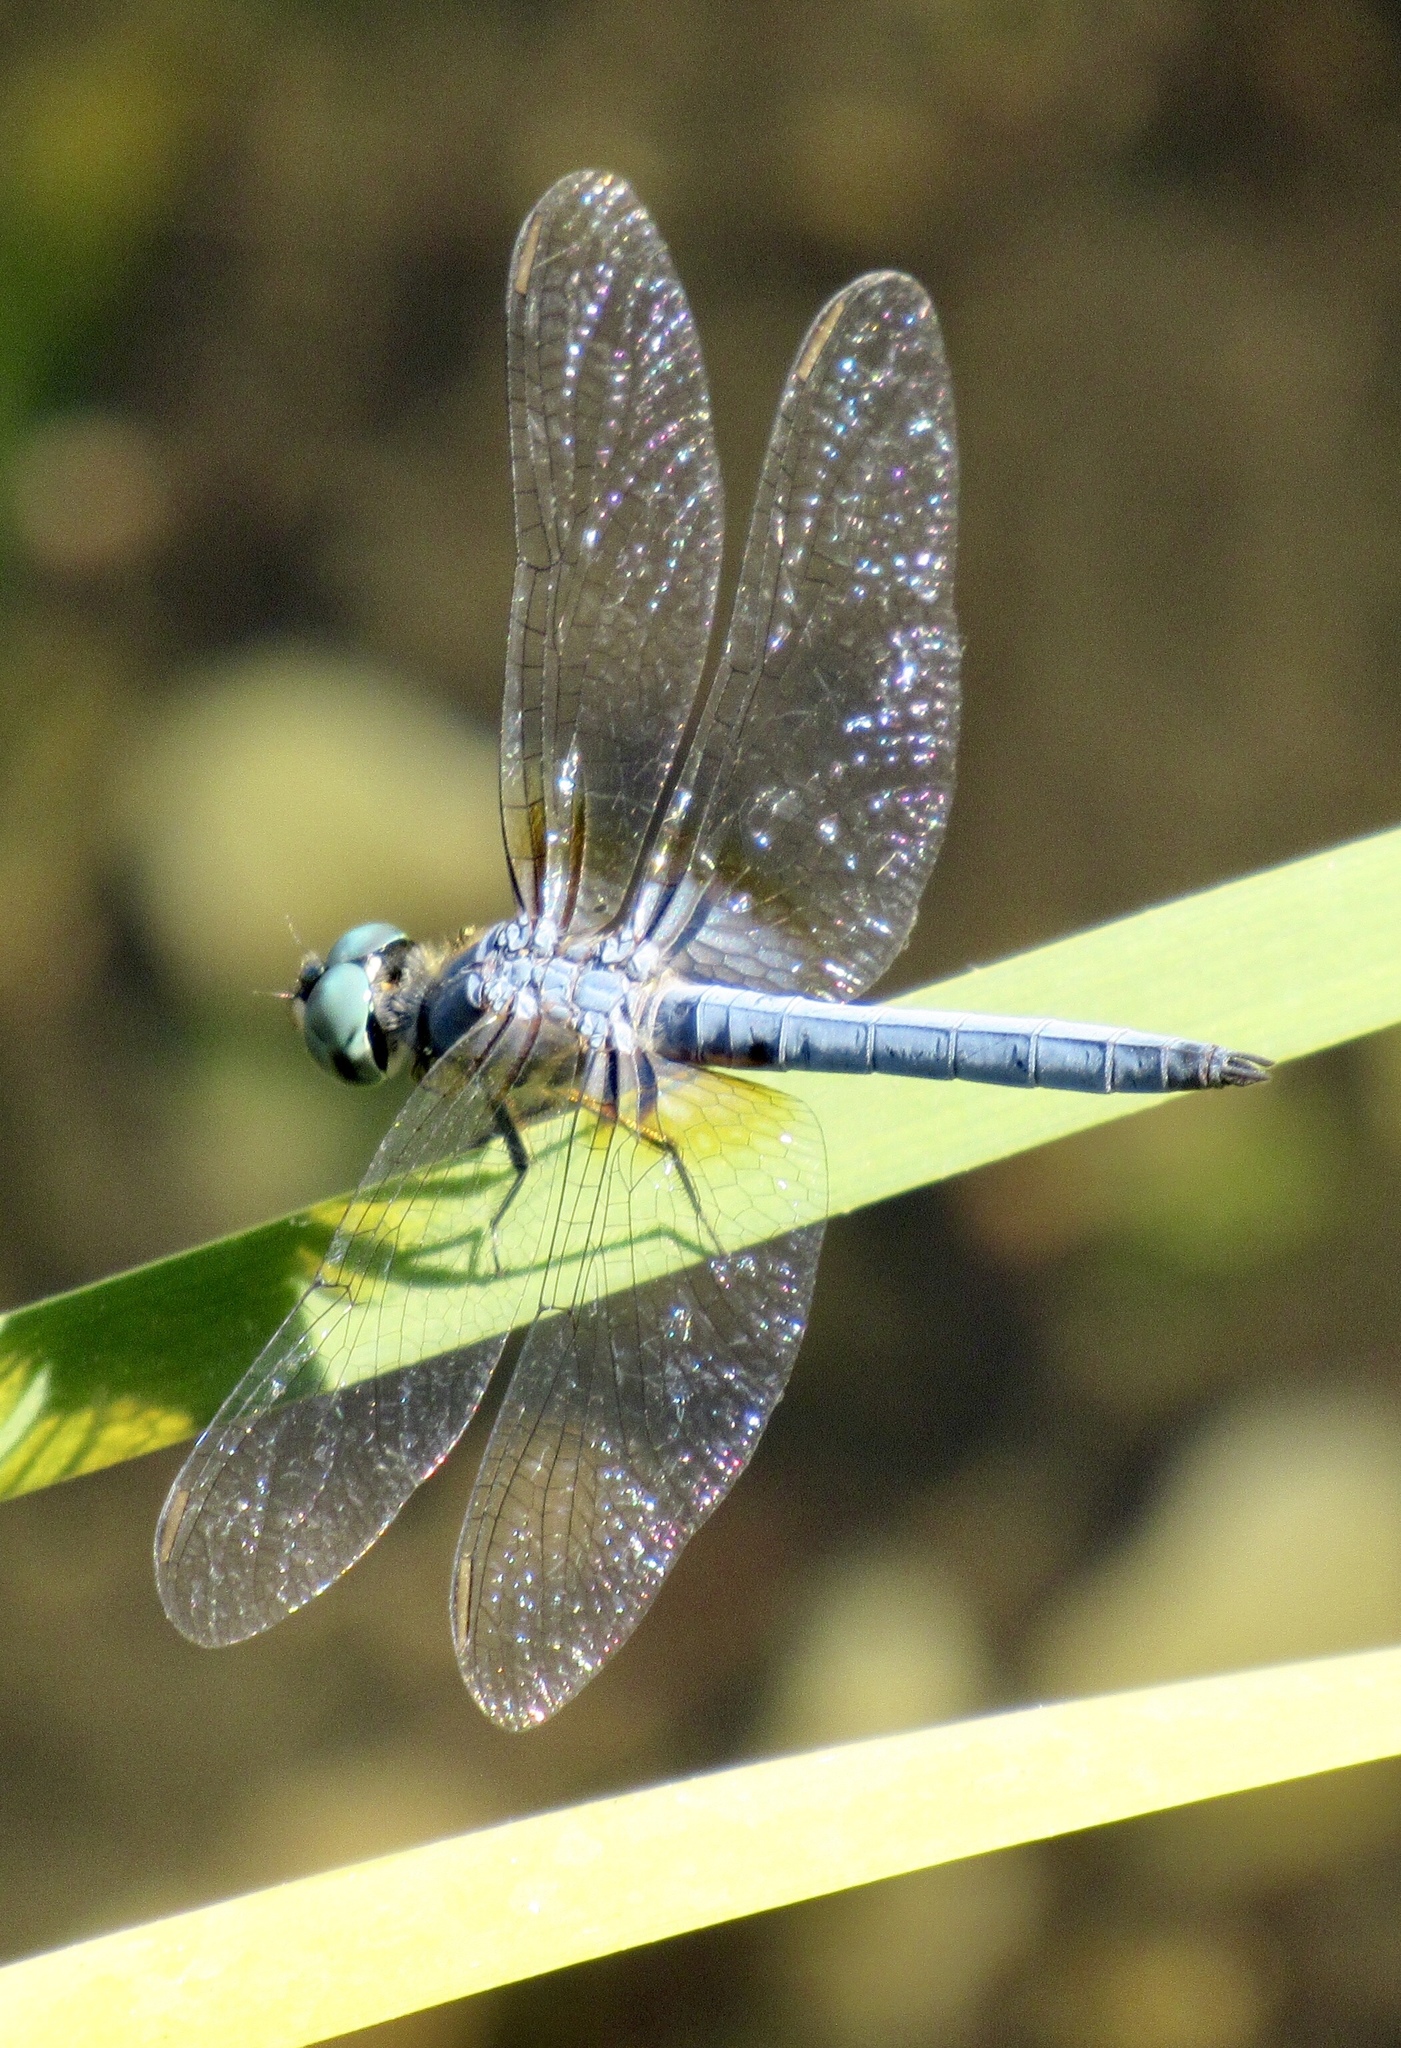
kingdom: Animalia
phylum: Arthropoda
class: Insecta
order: Odonata
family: Libellulidae
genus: Pachydiplax
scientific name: Pachydiplax longipennis
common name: Blue dasher
